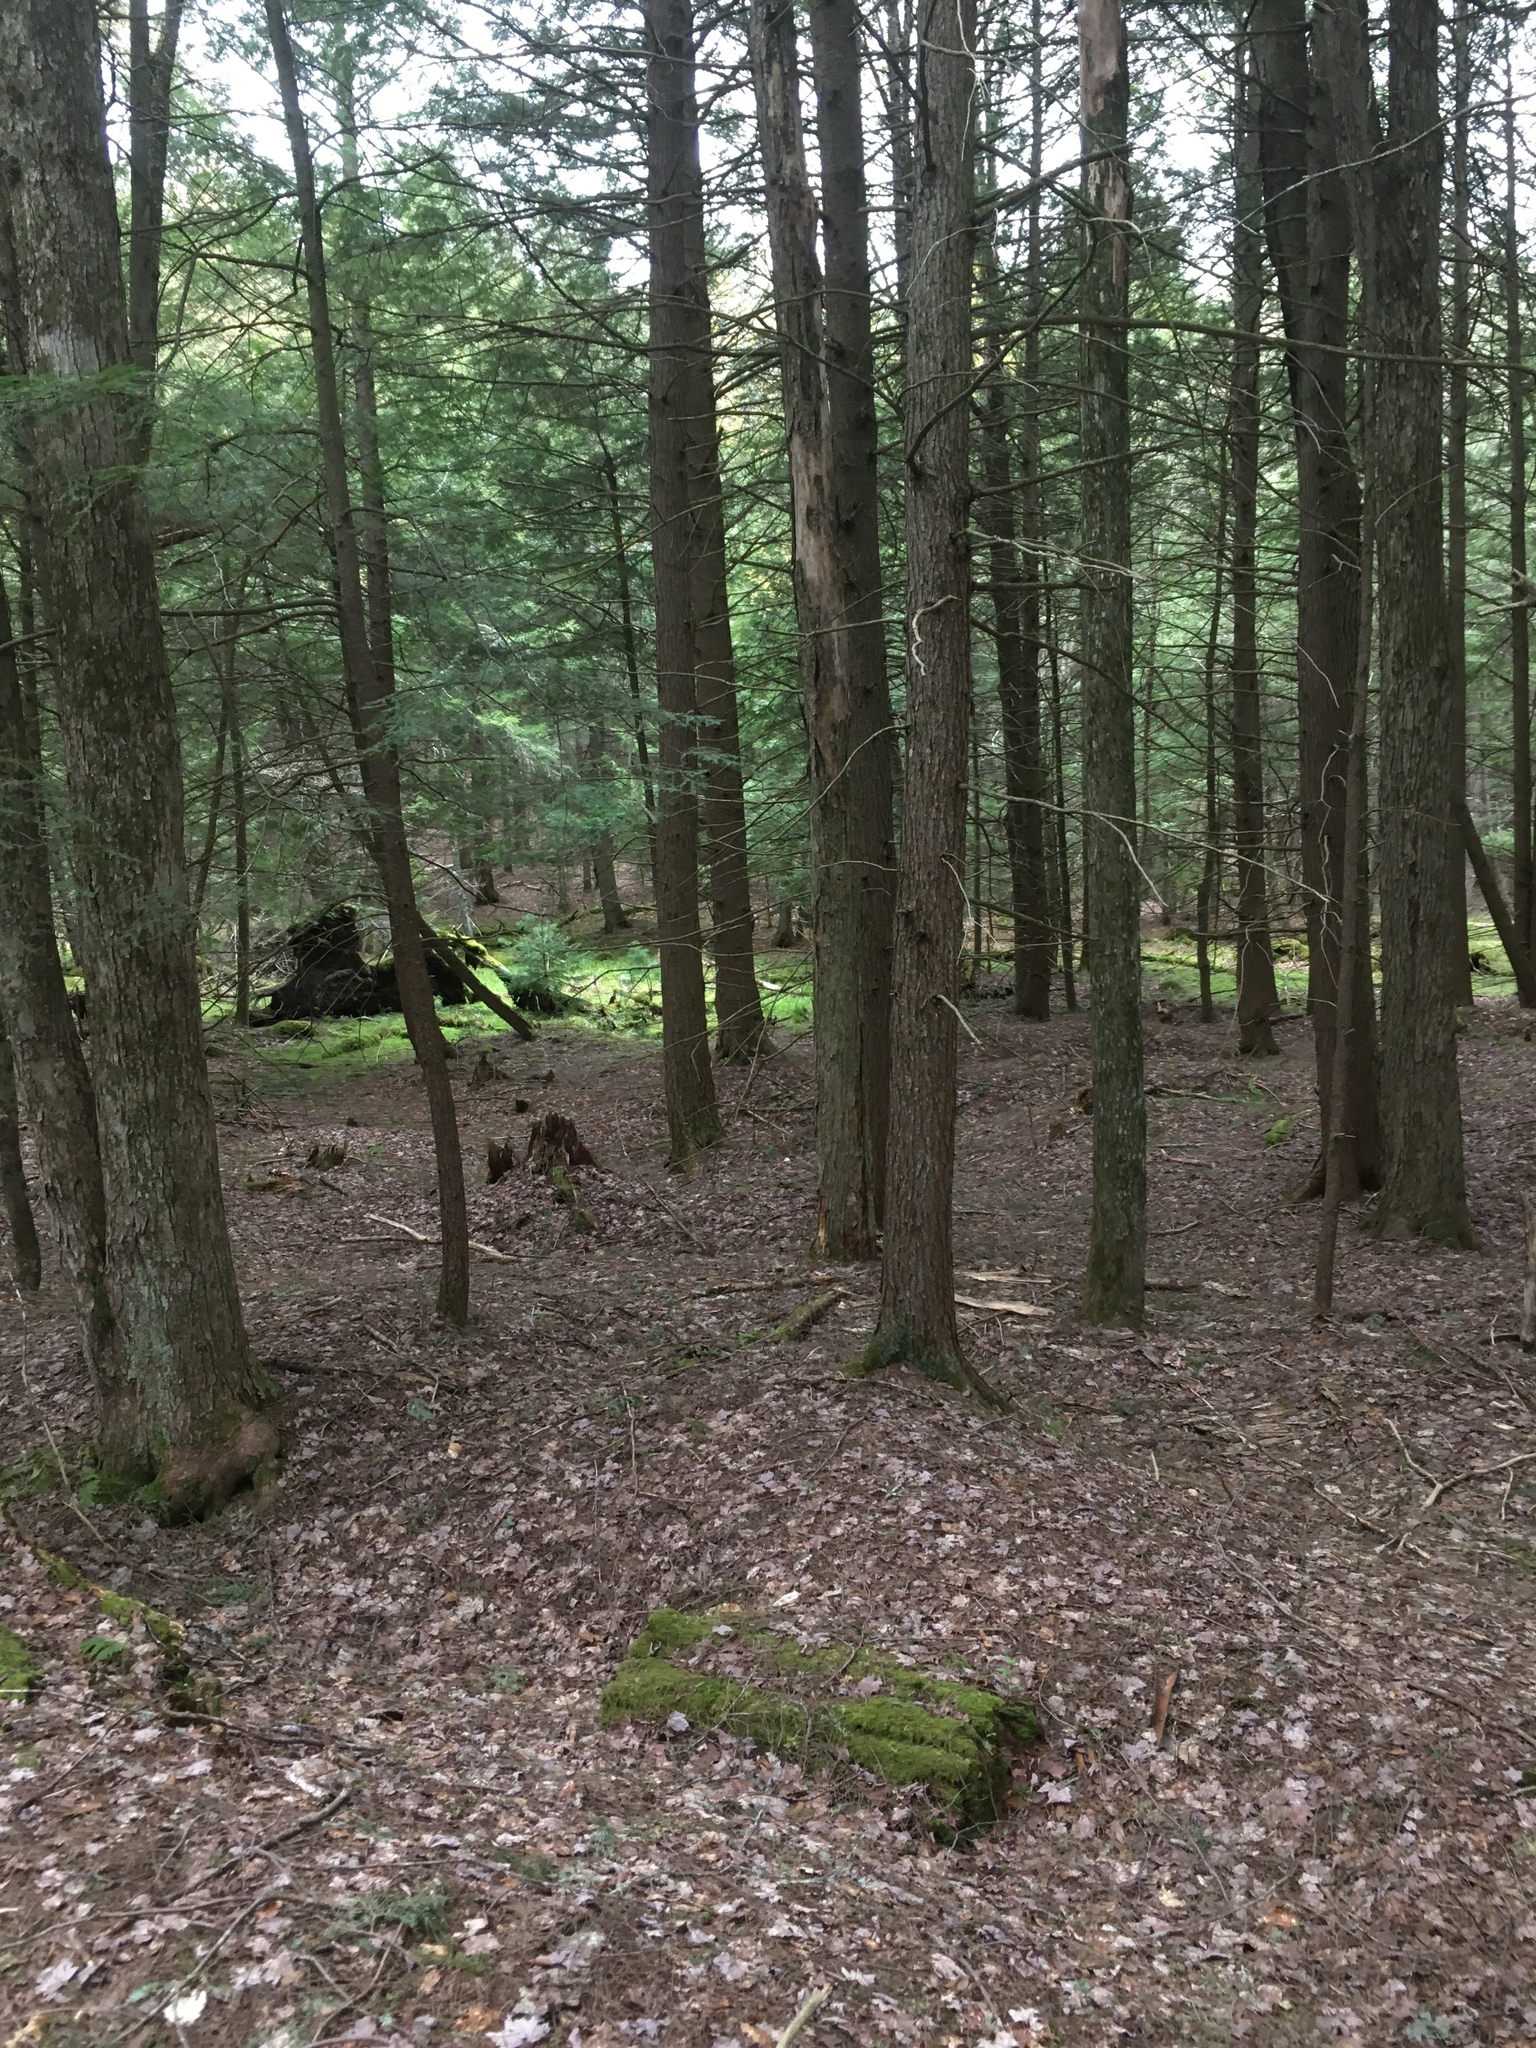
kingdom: Plantae
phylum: Tracheophyta
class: Pinopsida
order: Pinales
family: Pinaceae
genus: Tsuga
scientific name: Tsuga canadensis
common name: Eastern hemlock
